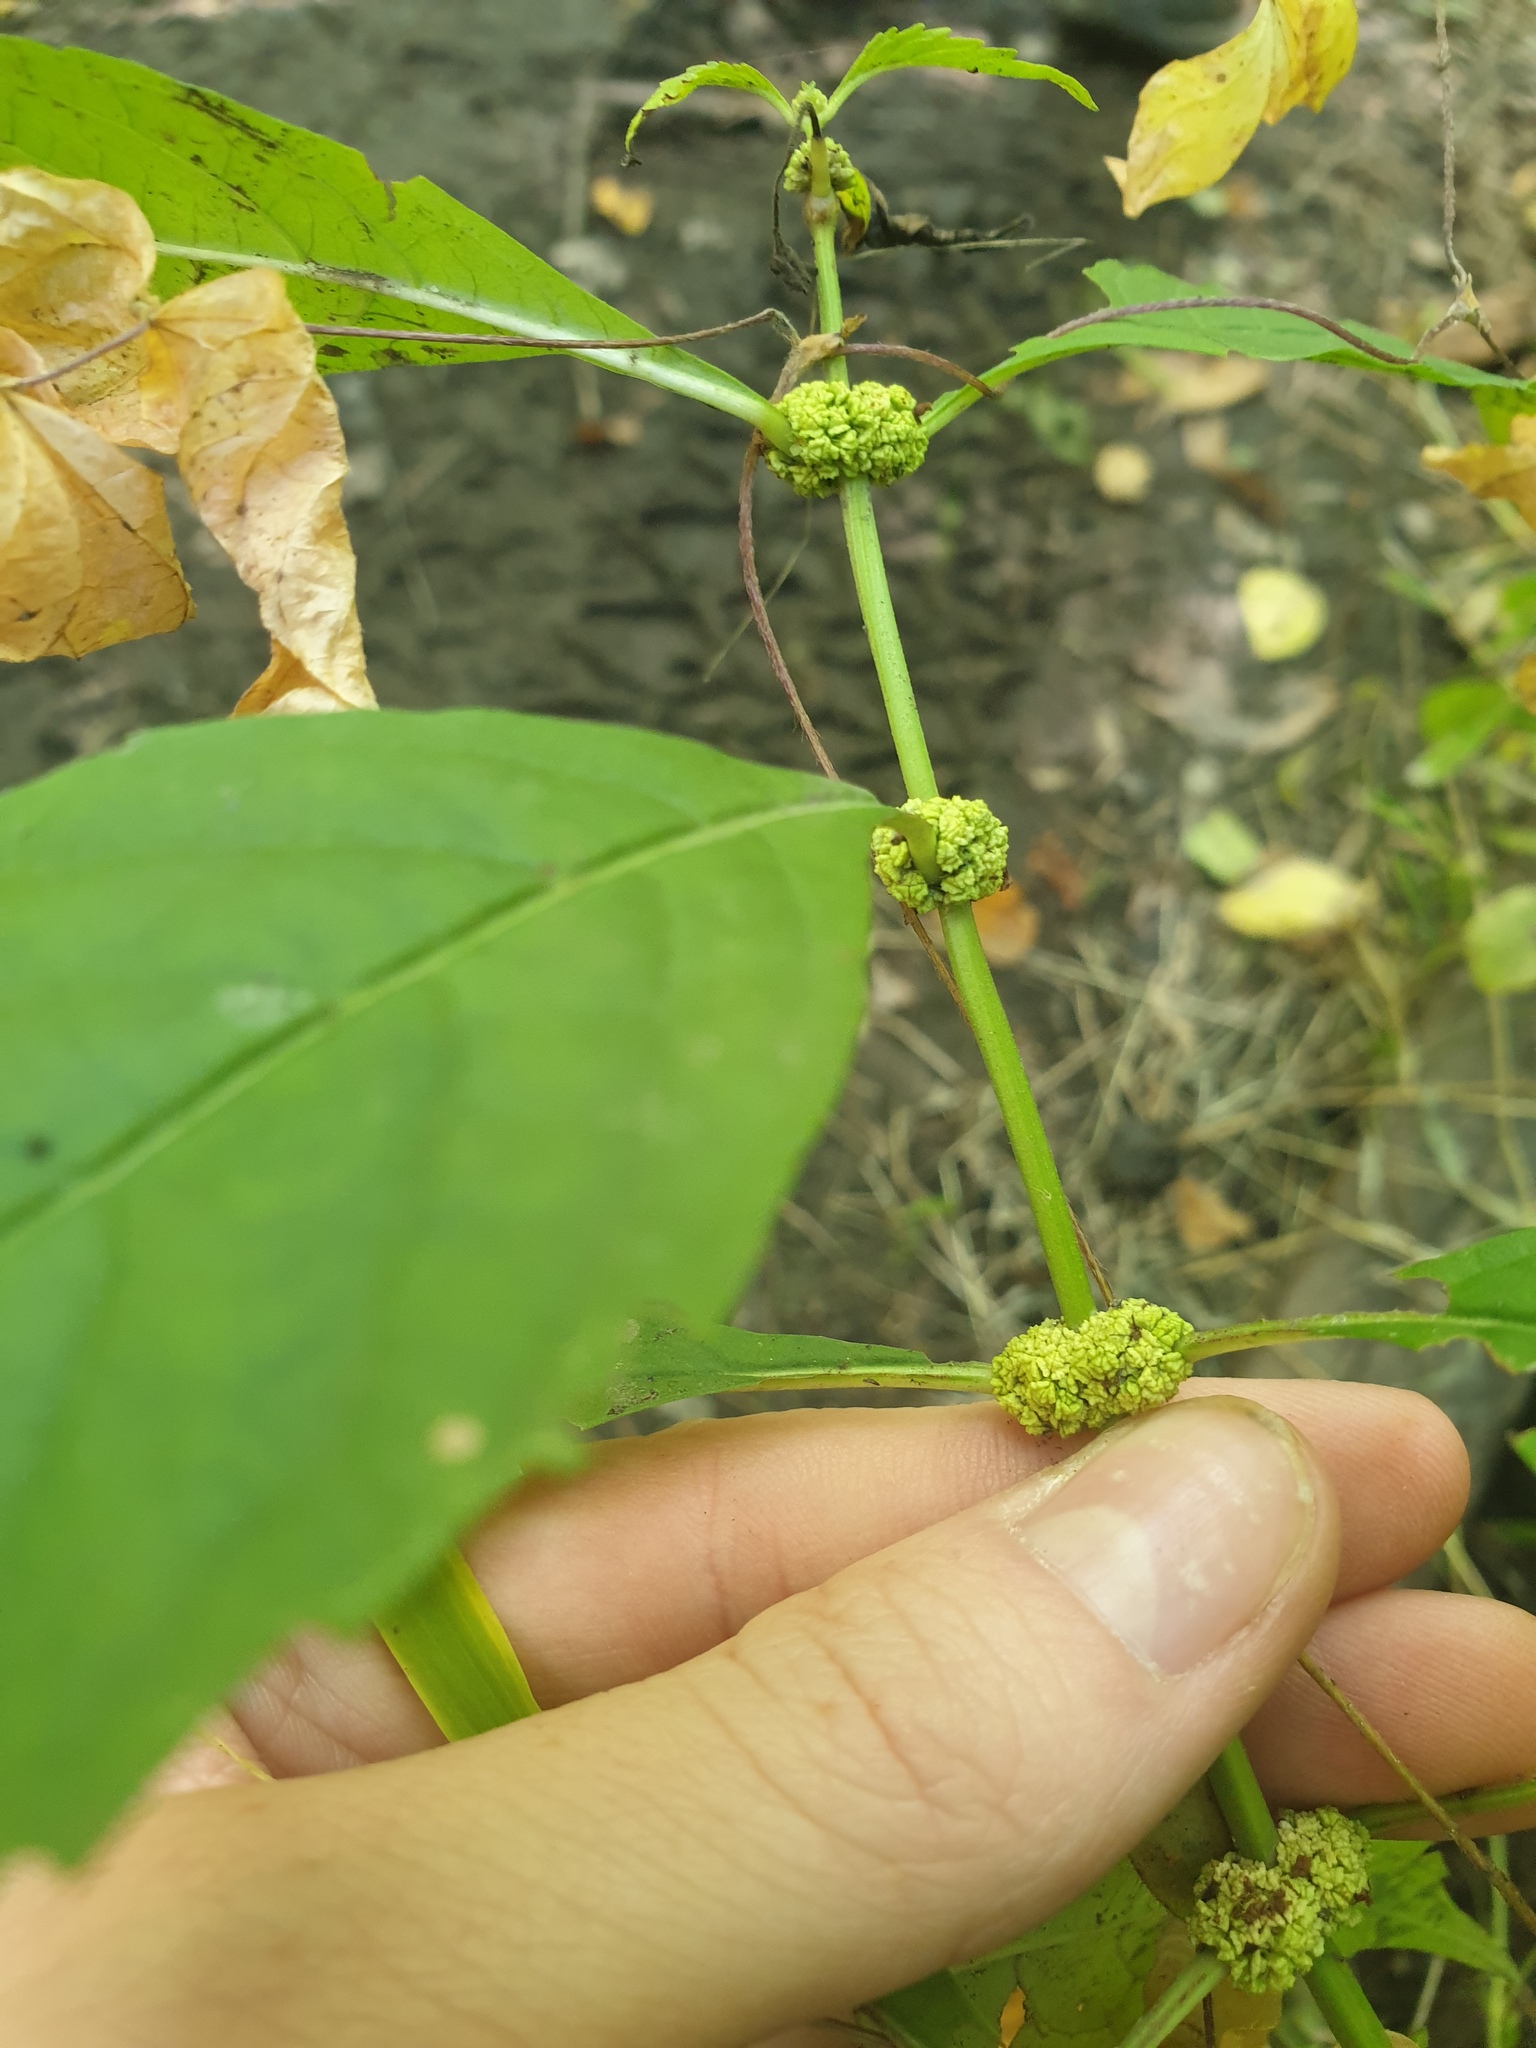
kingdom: Plantae
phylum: Tracheophyta
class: Magnoliopsida
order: Lamiales
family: Lamiaceae
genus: Lycopus
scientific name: Lycopus virginicus
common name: Bugleweed
